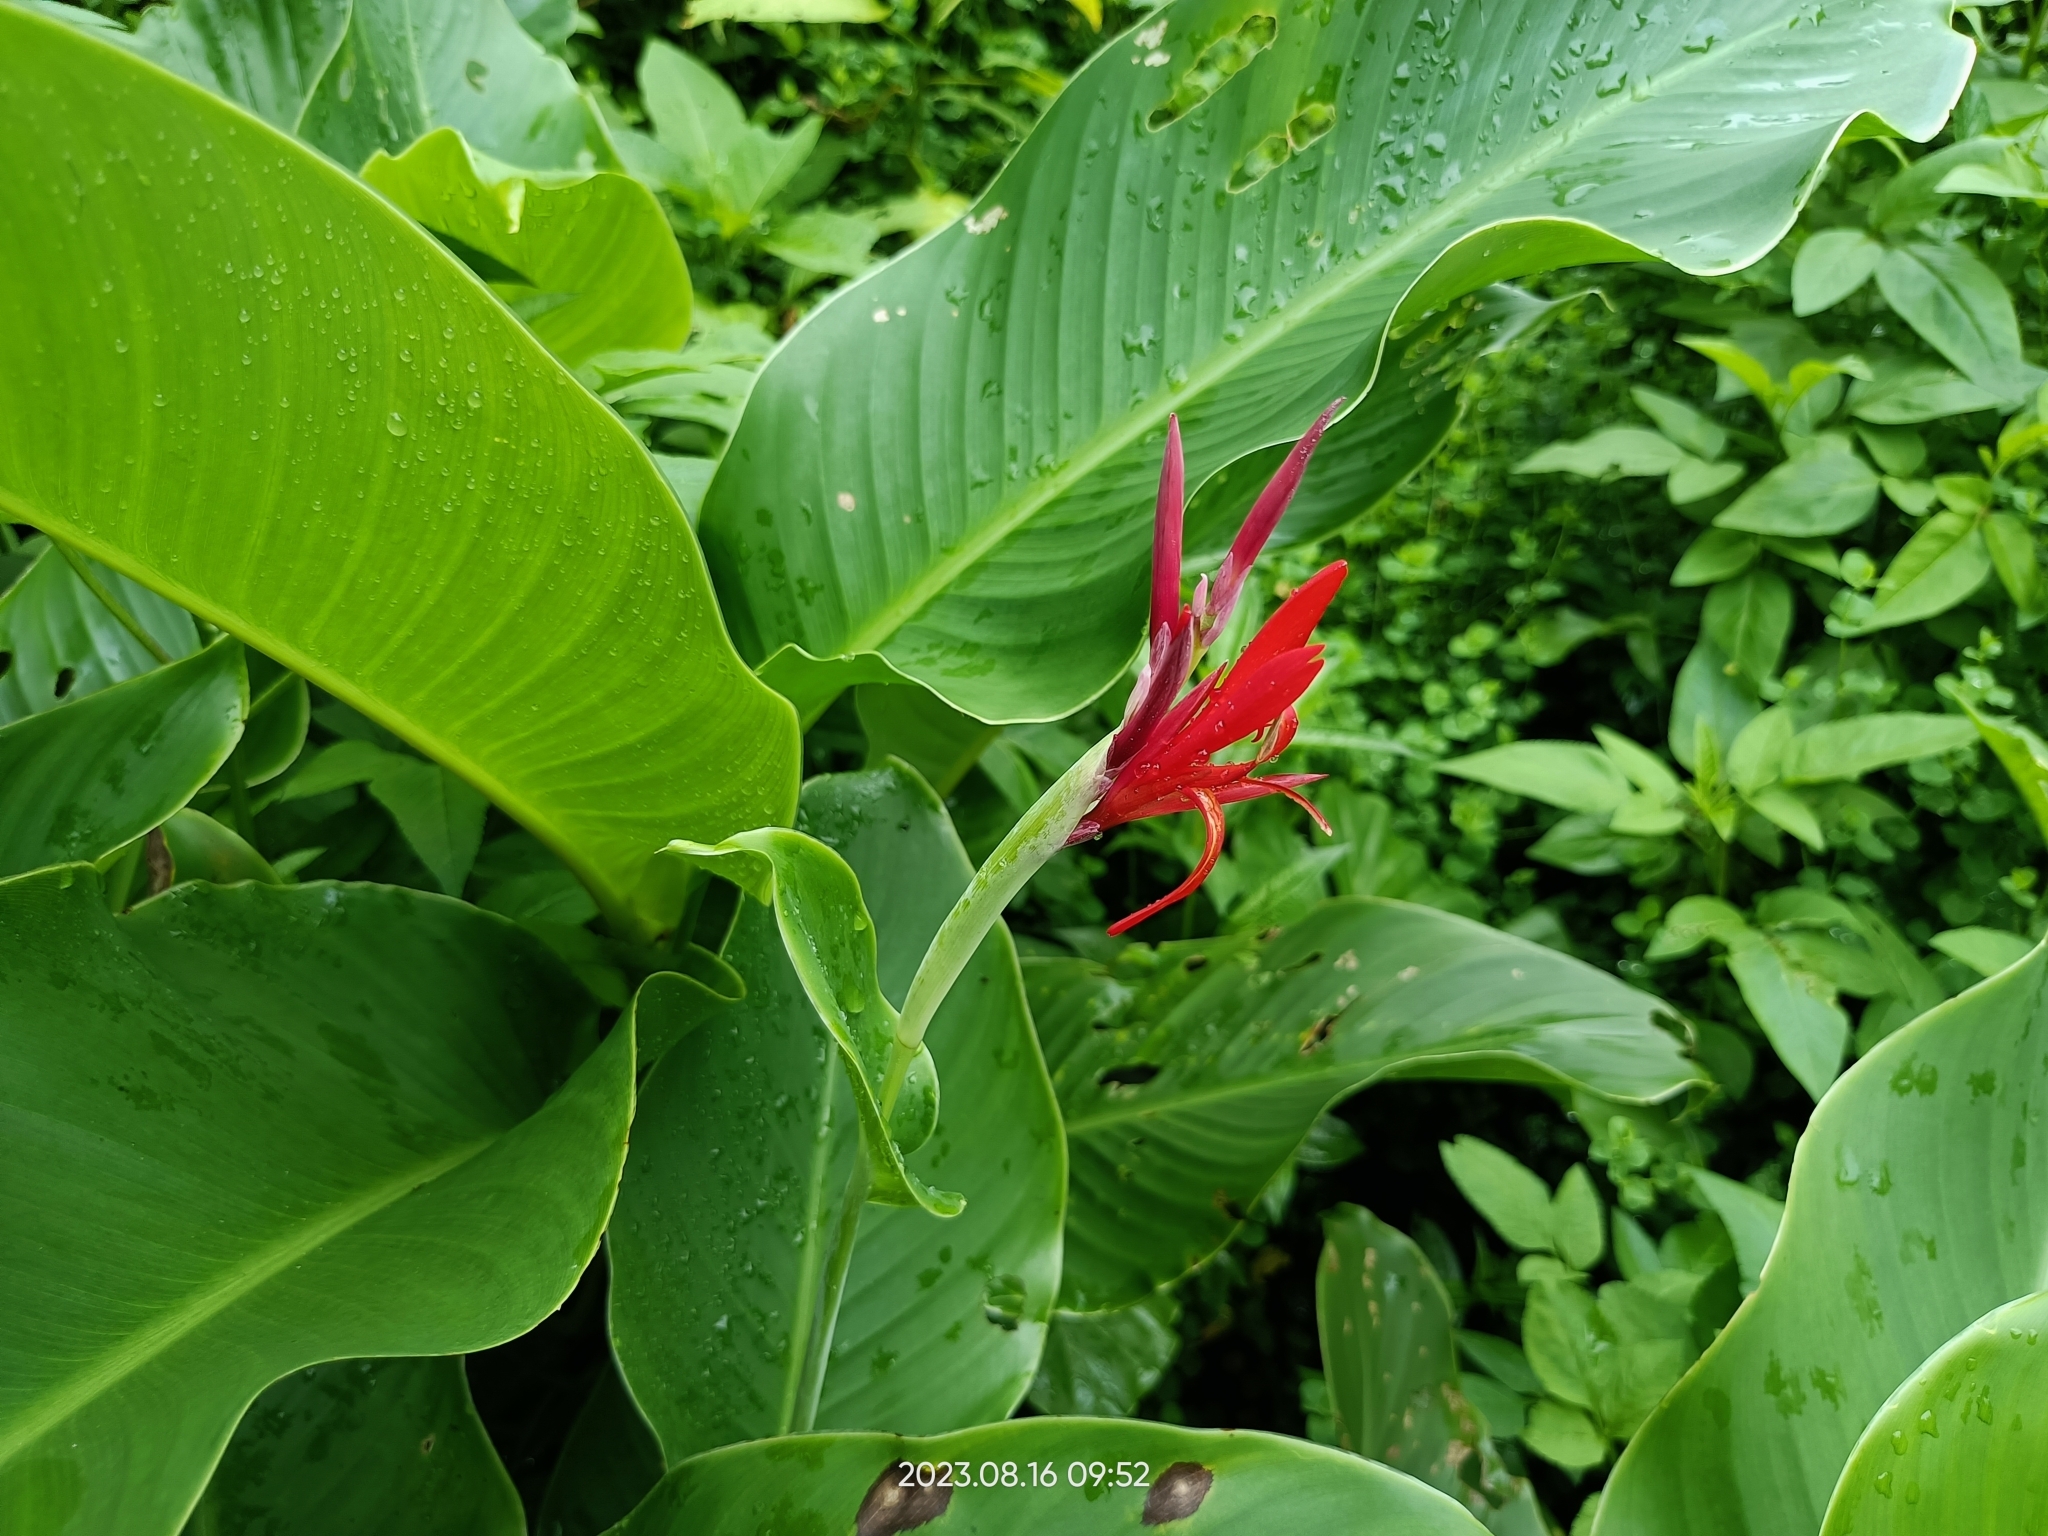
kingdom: Plantae
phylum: Tracheophyta
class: Liliopsida
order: Zingiberales
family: Cannaceae
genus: Canna
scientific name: Canna indica
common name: Indian shot
